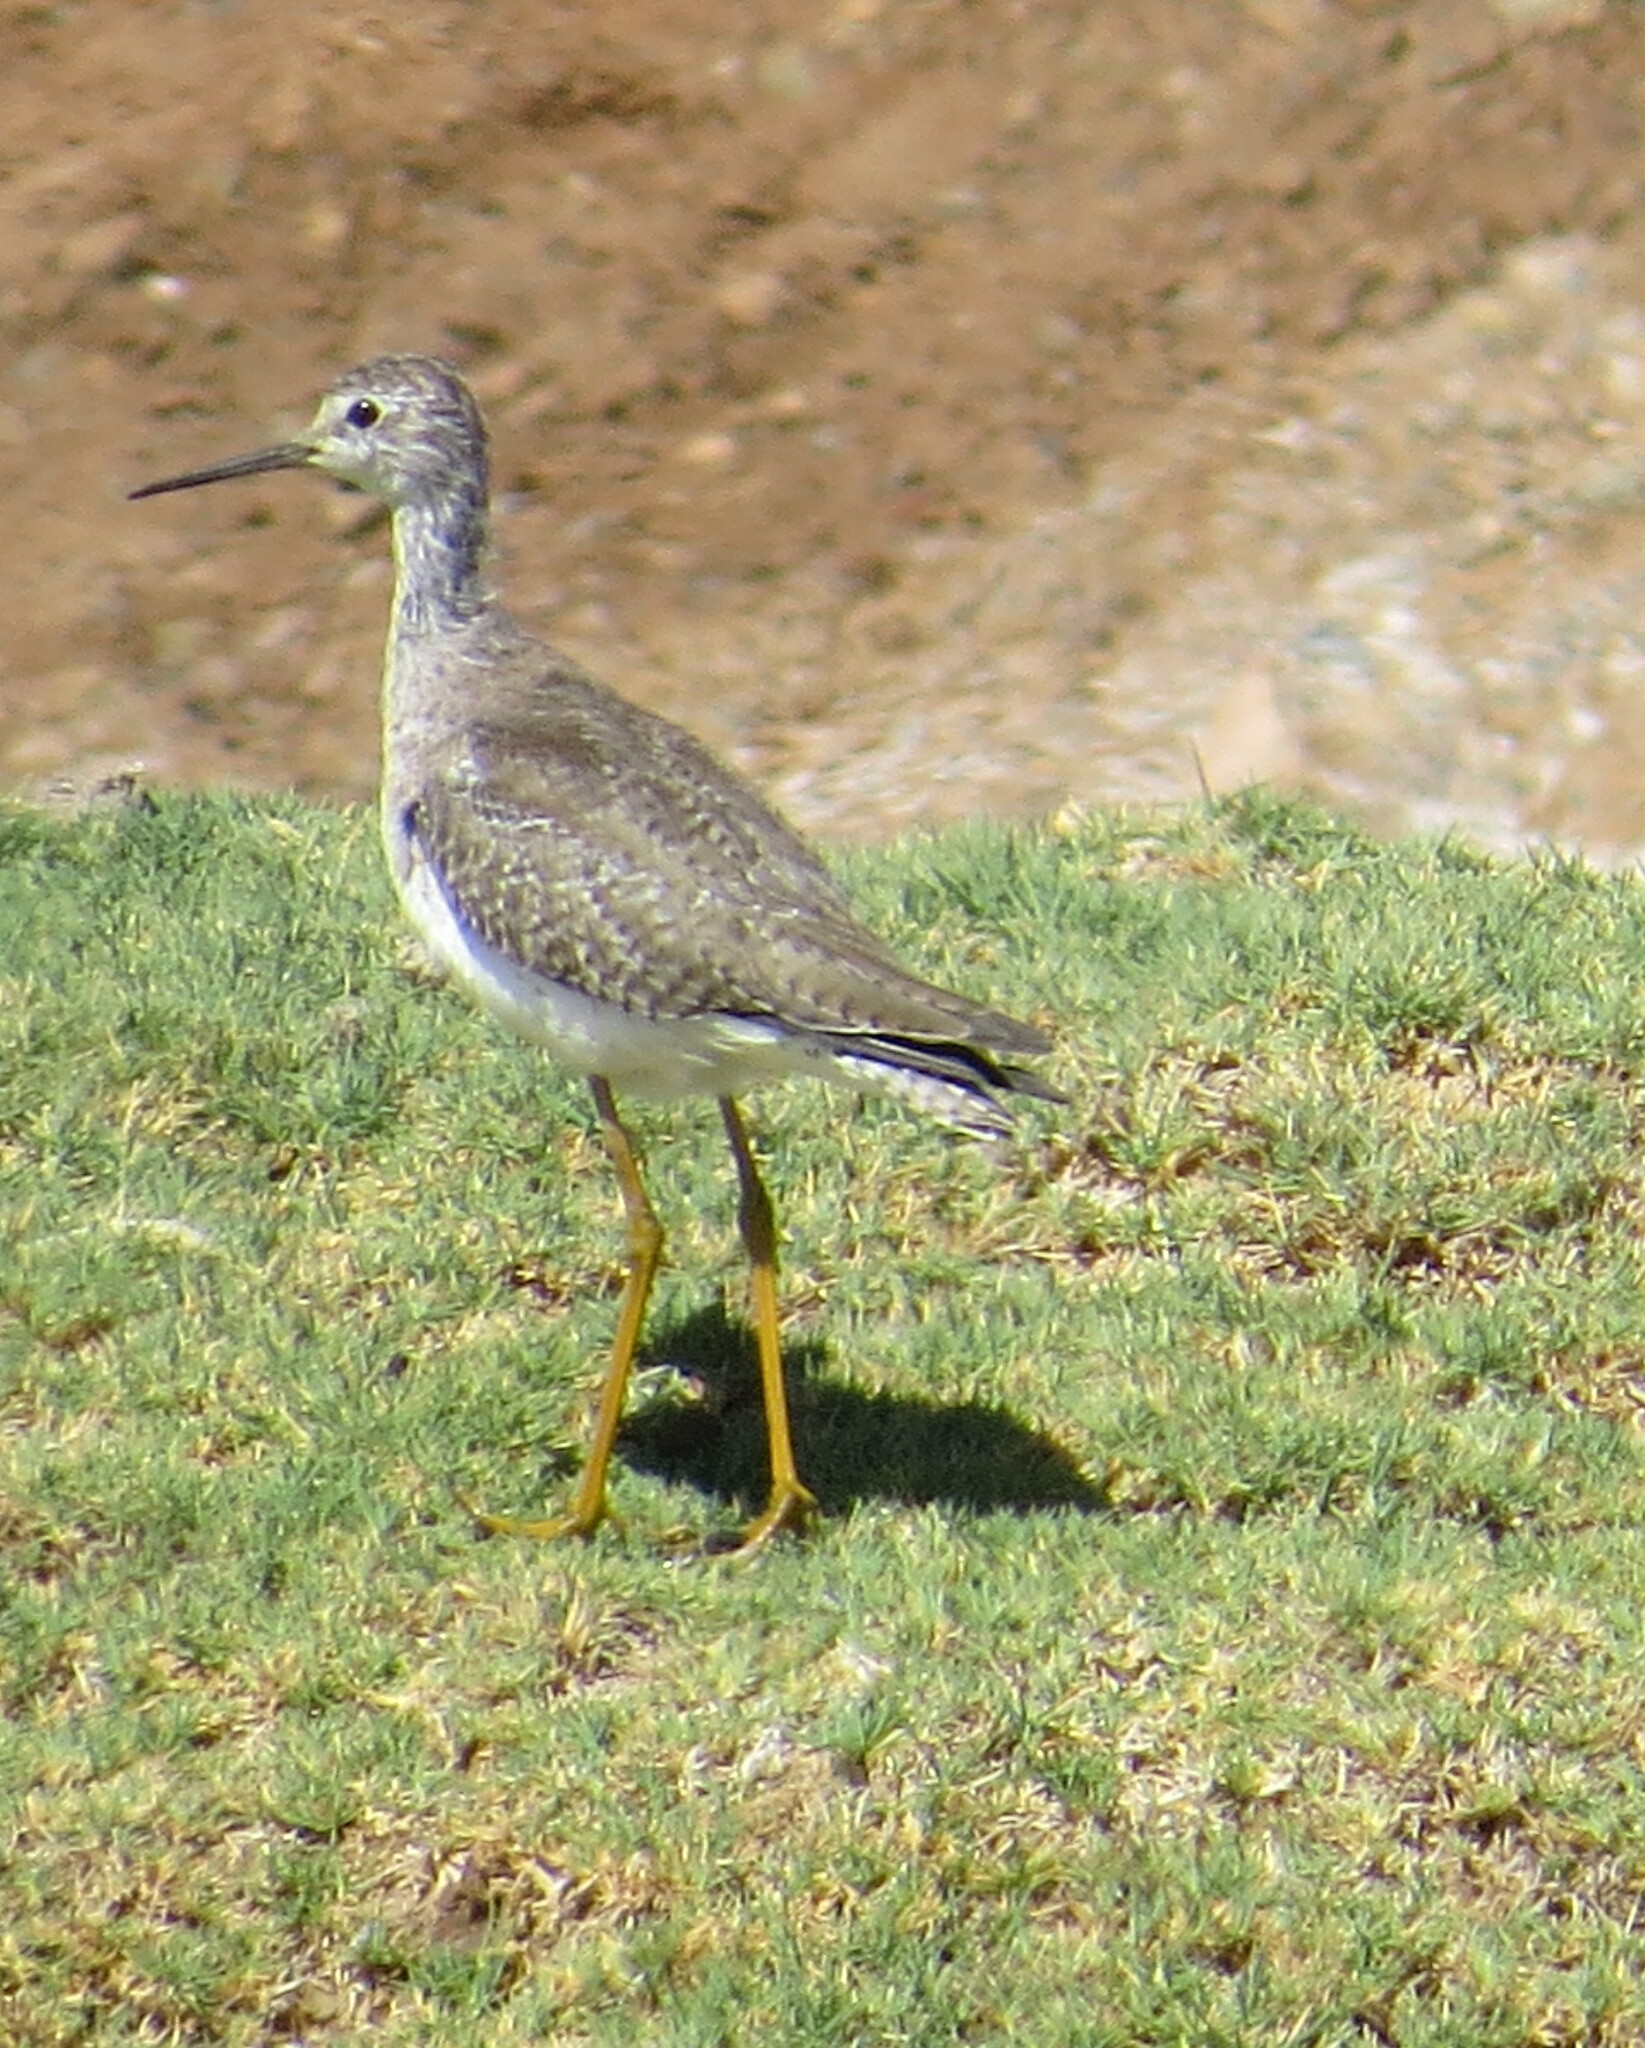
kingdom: Animalia
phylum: Chordata
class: Aves
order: Charadriiformes
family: Scolopacidae
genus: Tringa
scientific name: Tringa flavipes
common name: Lesser yellowlegs
